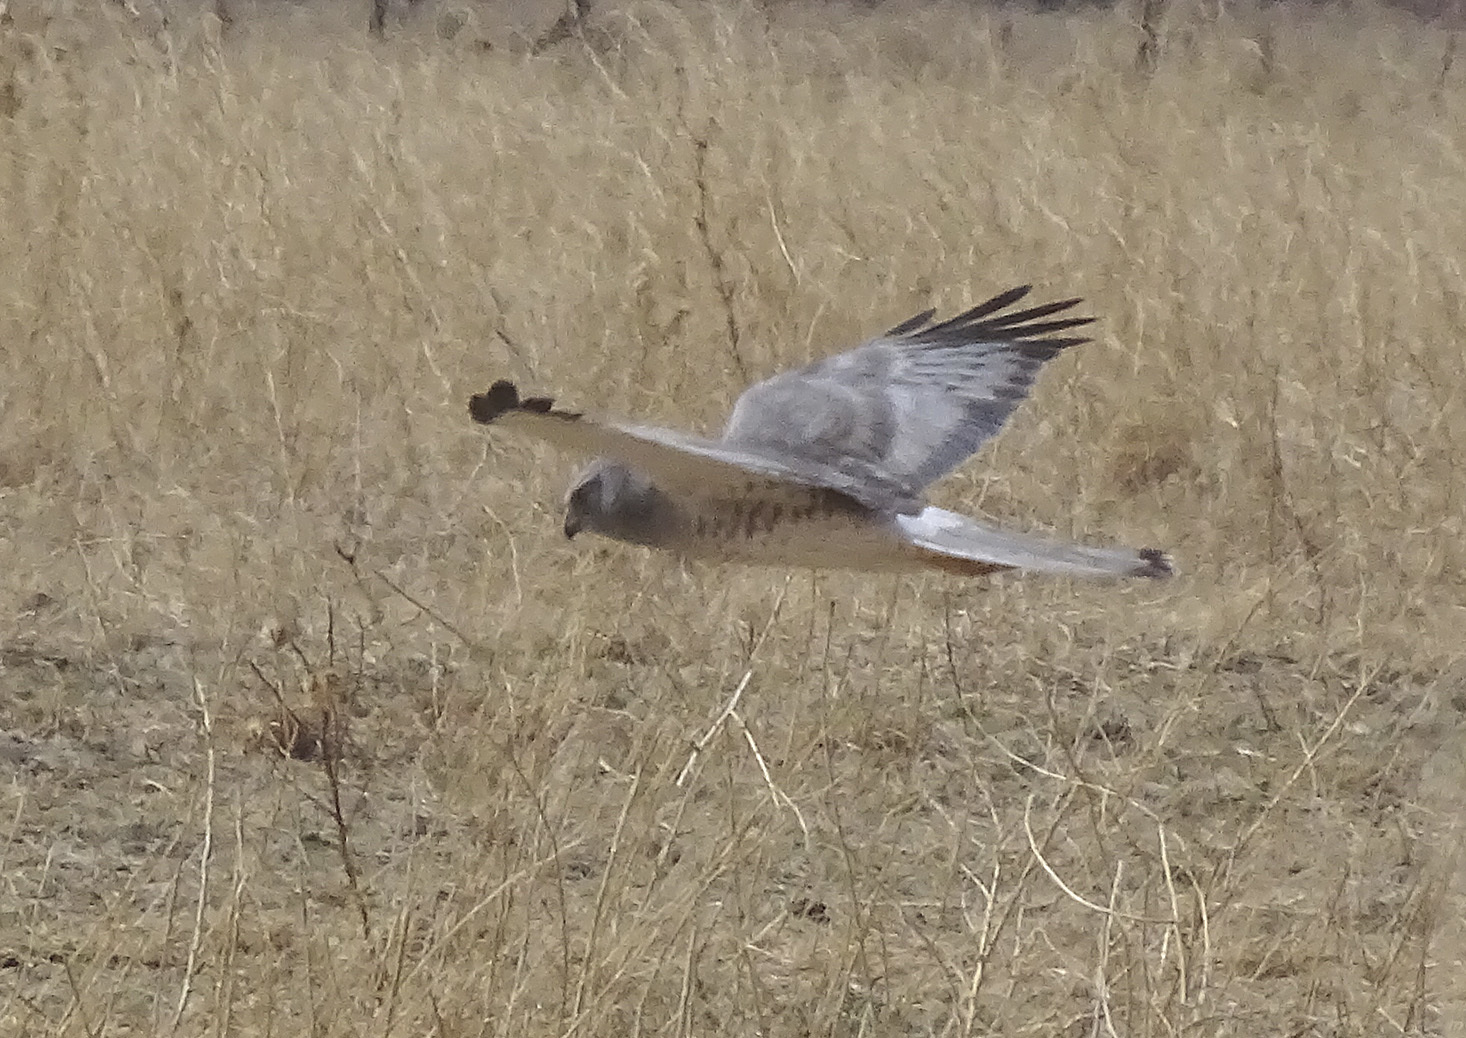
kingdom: Animalia
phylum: Chordata
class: Aves
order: Accipitriformes
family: Accipitridae
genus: Circus
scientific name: Circus cyaneus
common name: Hen harrier
